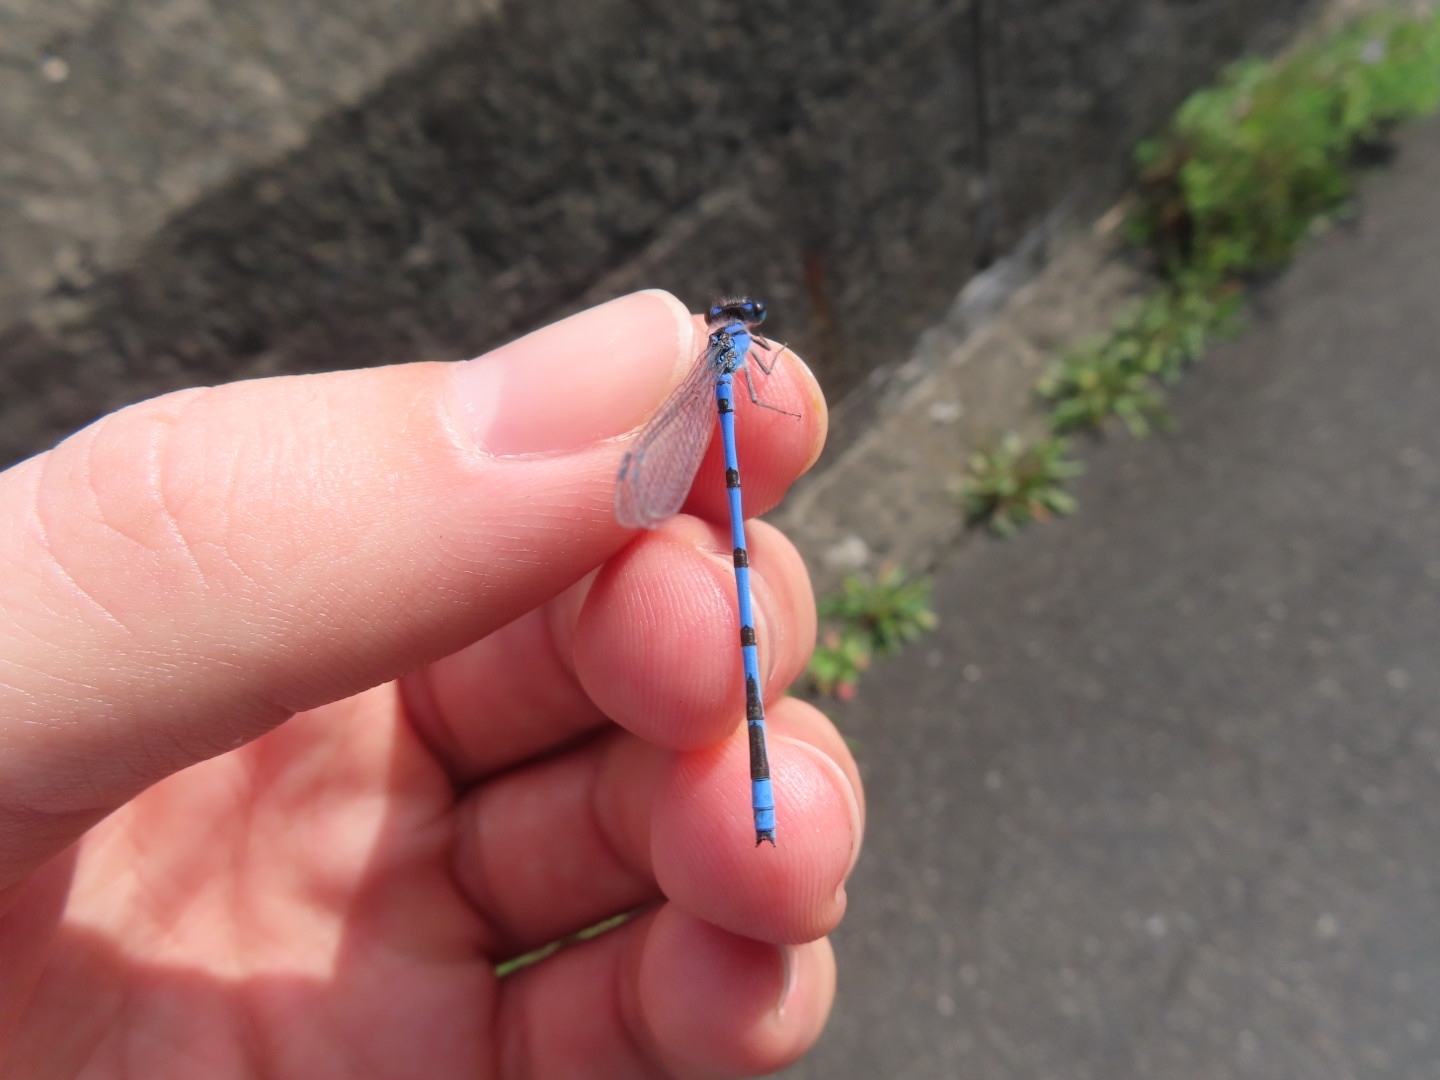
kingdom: Animalia
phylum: Arthropoda
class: Insecta
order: Odonata
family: Coenagrionidae
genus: Enallagma
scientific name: Enallagma civile
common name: Damselfly
